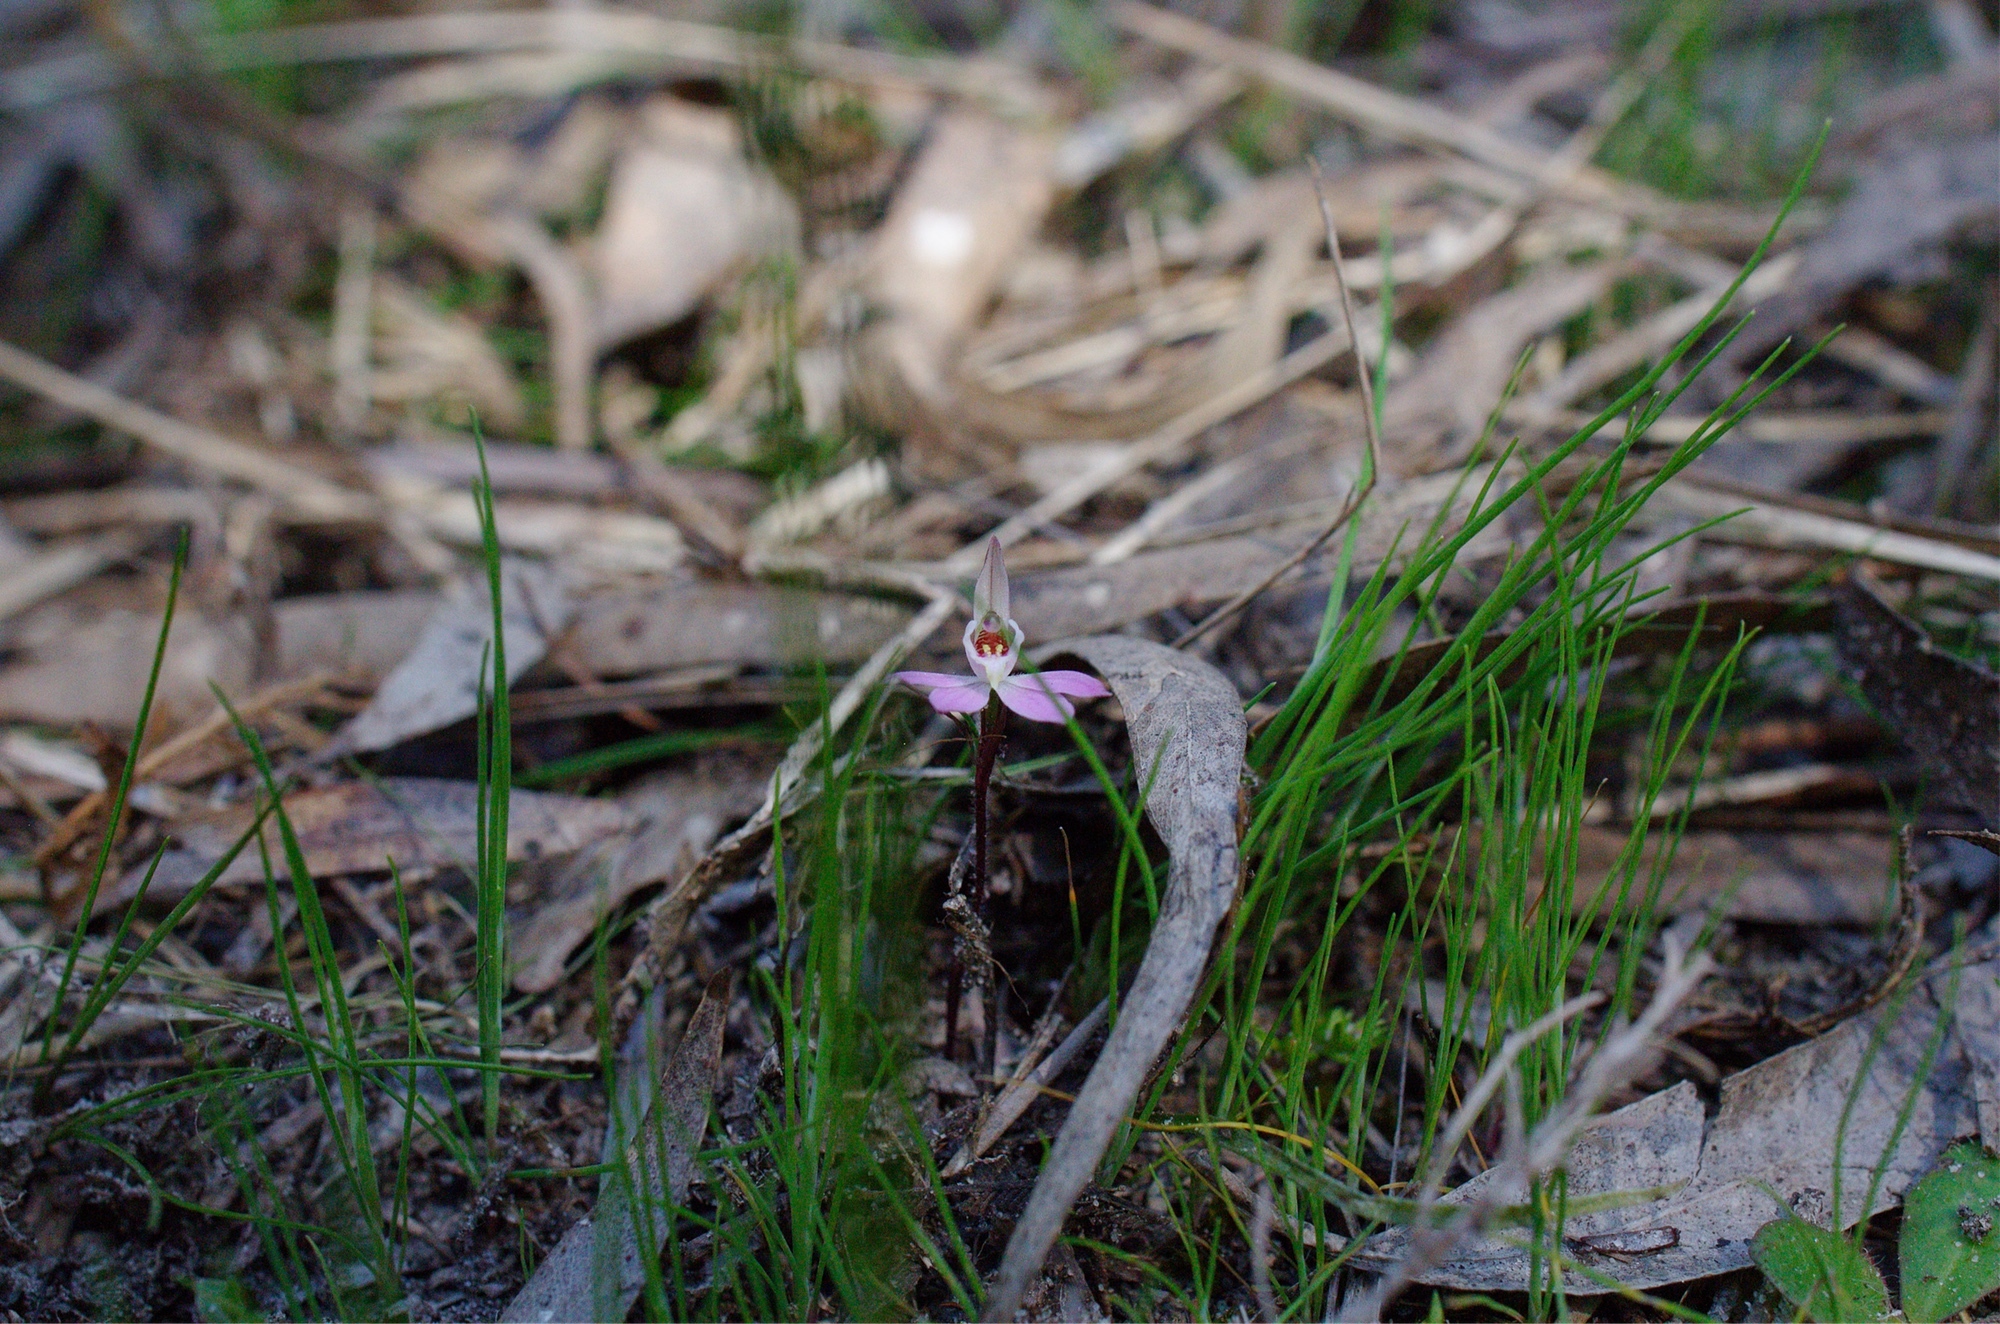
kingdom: Plantae
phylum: Tracheophyta
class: Liliopsida
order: Asparagales
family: Orchidaceae
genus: Caladenia
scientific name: Caladenia fuscata
